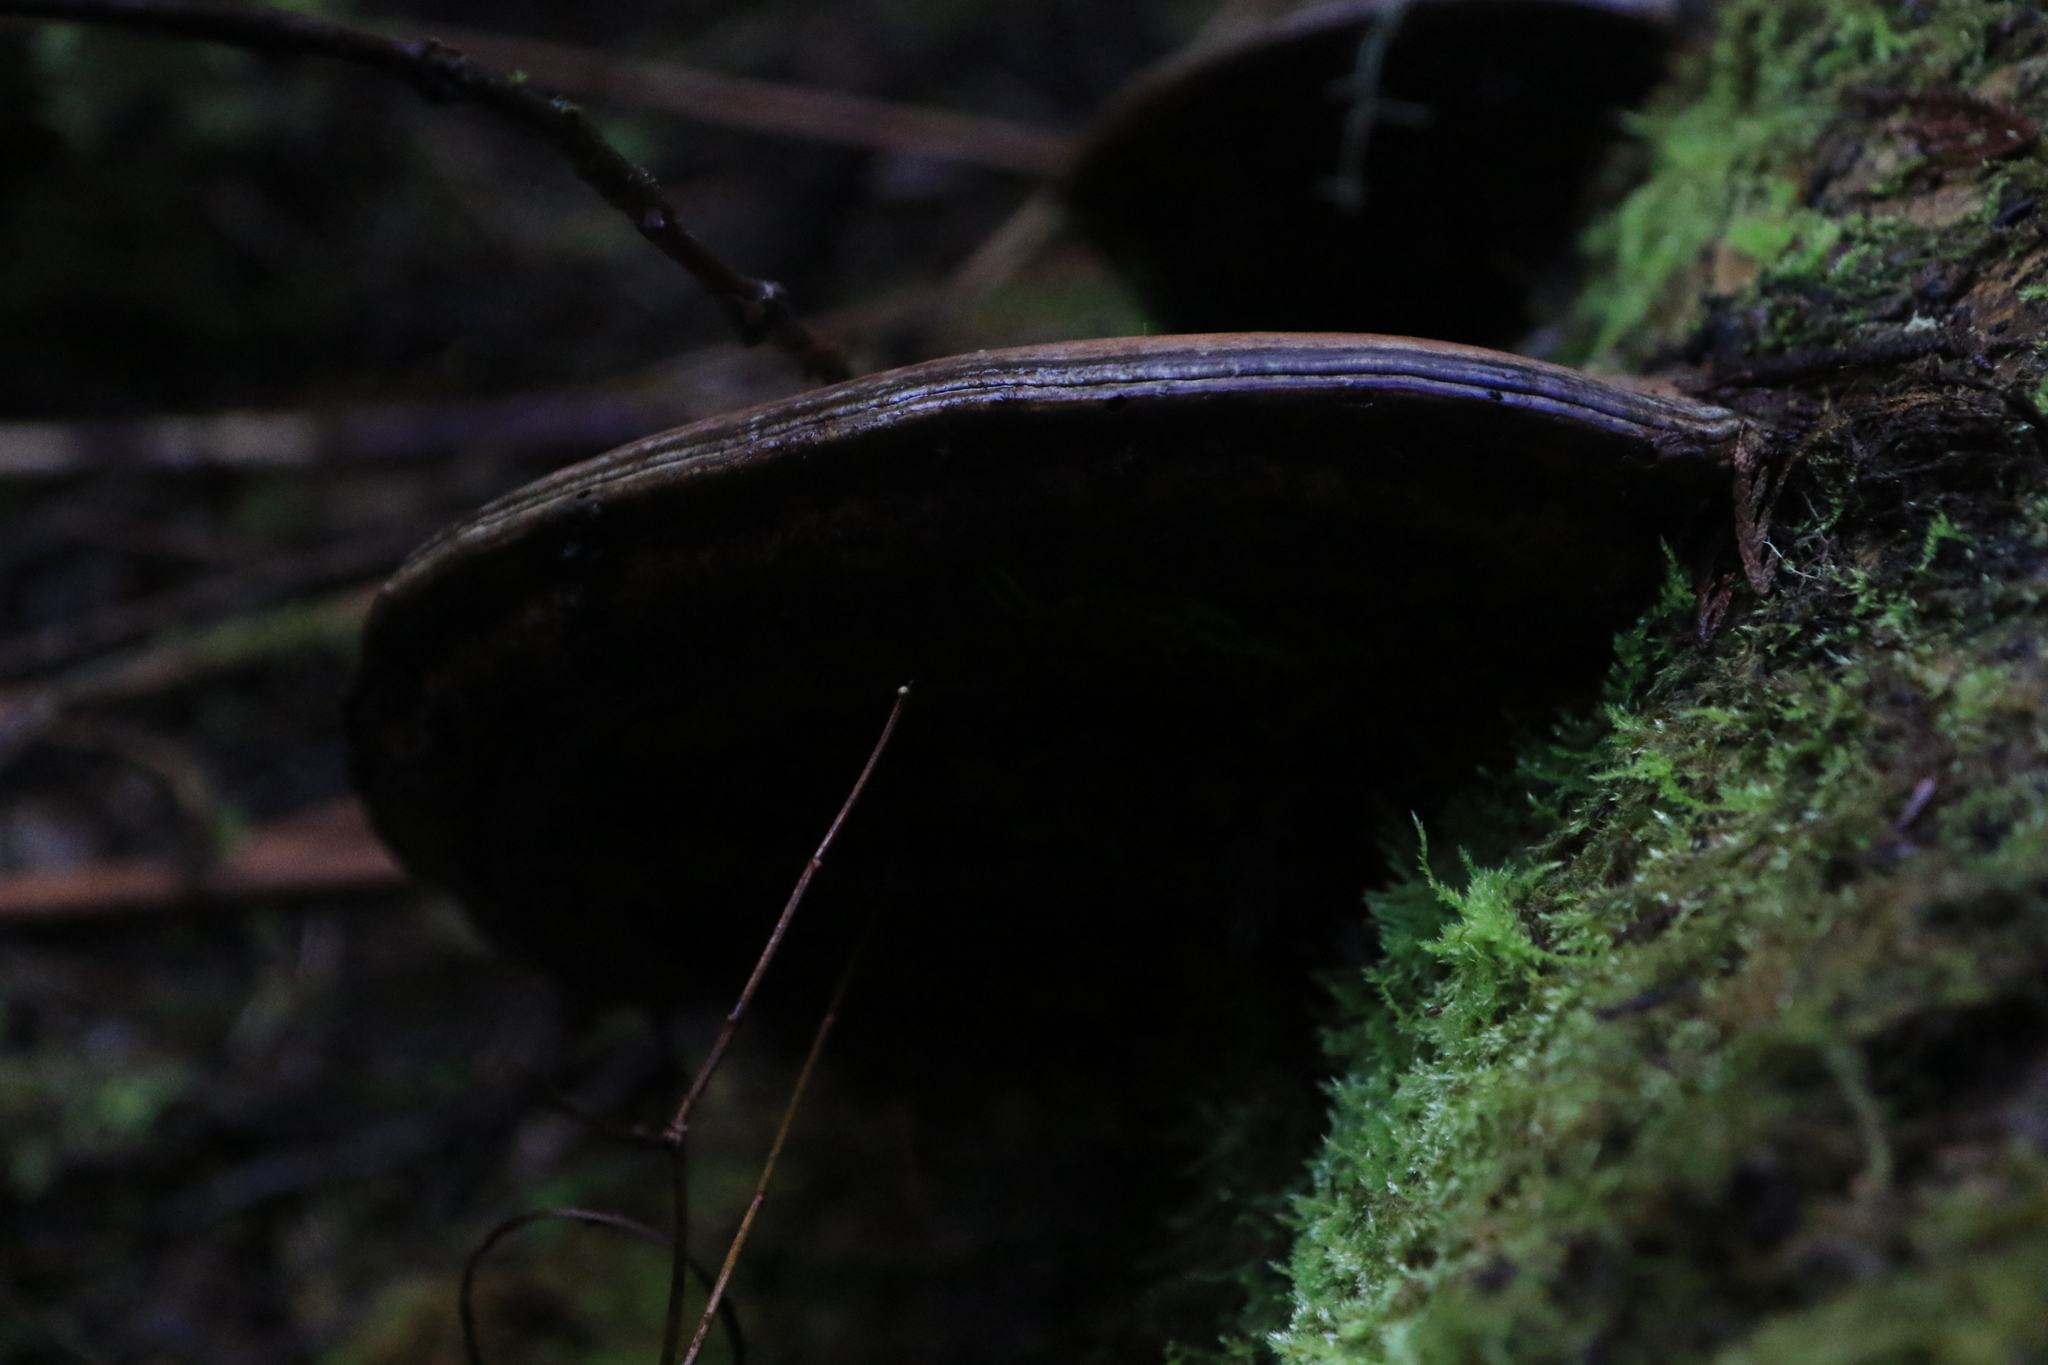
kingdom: Fungi
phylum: Basidiomycota
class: Agaricomycetes
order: Polyporales
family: Polyporaceae
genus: Ganoderma
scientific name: Ganoderma applanatum
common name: Artist's bracket
